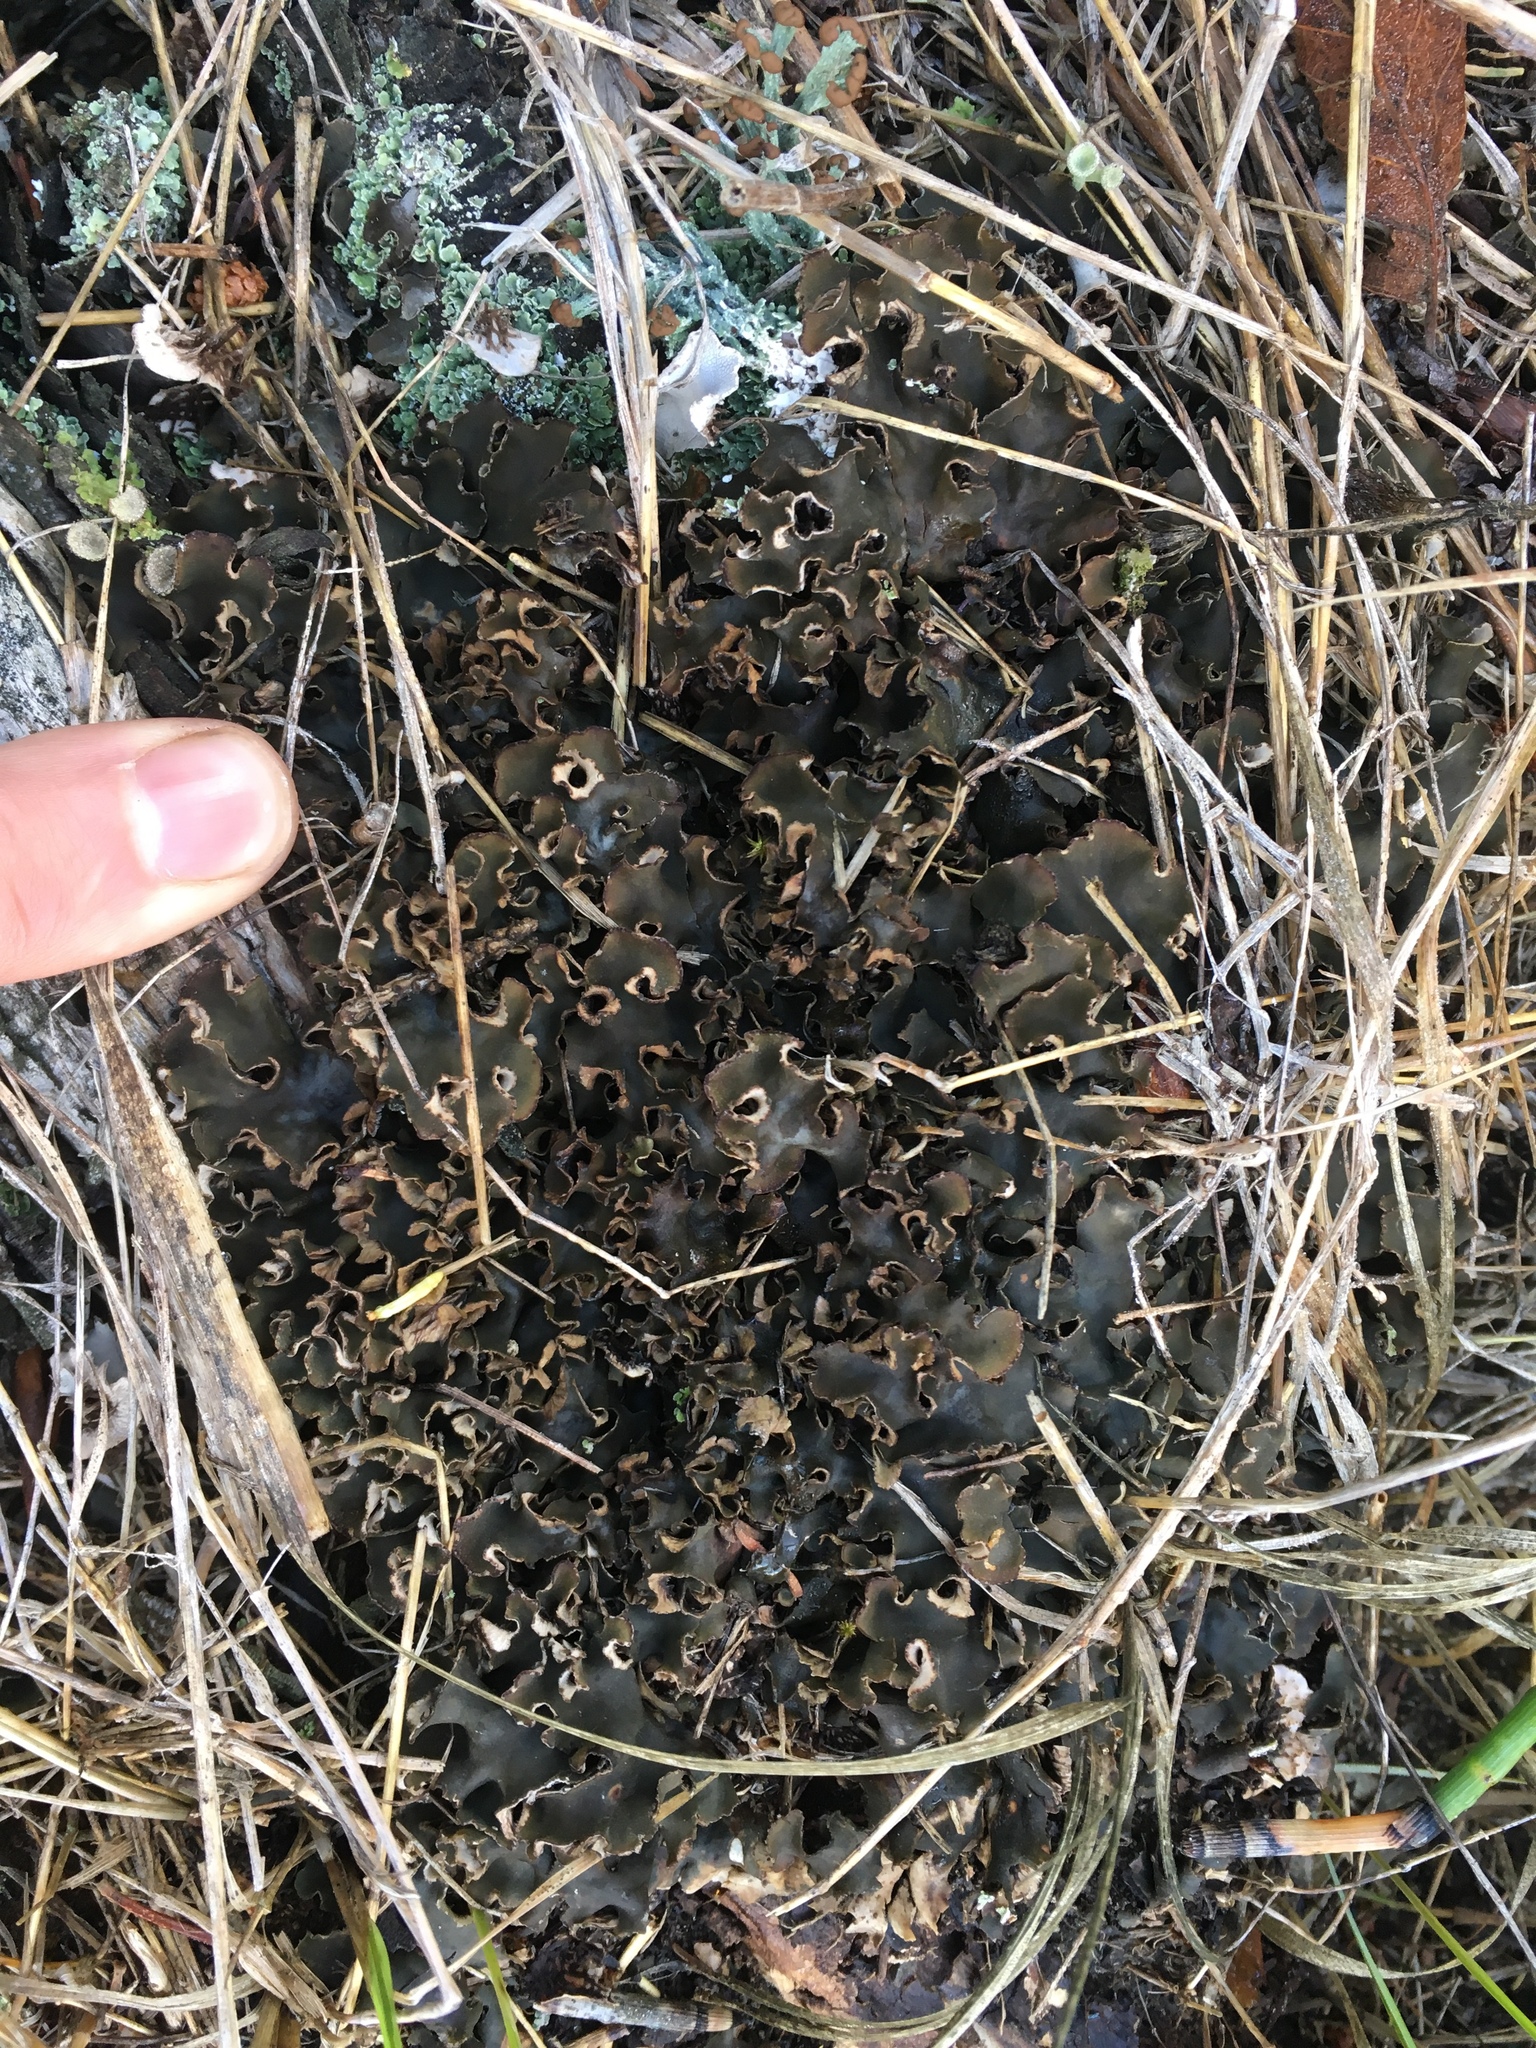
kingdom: Fungi
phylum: Ascomycota
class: Lecanoromycetes
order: Peltigerales
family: Peltigeraceae
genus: Peltigera
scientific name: Peltigera canina
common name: Dog pelt lichen
